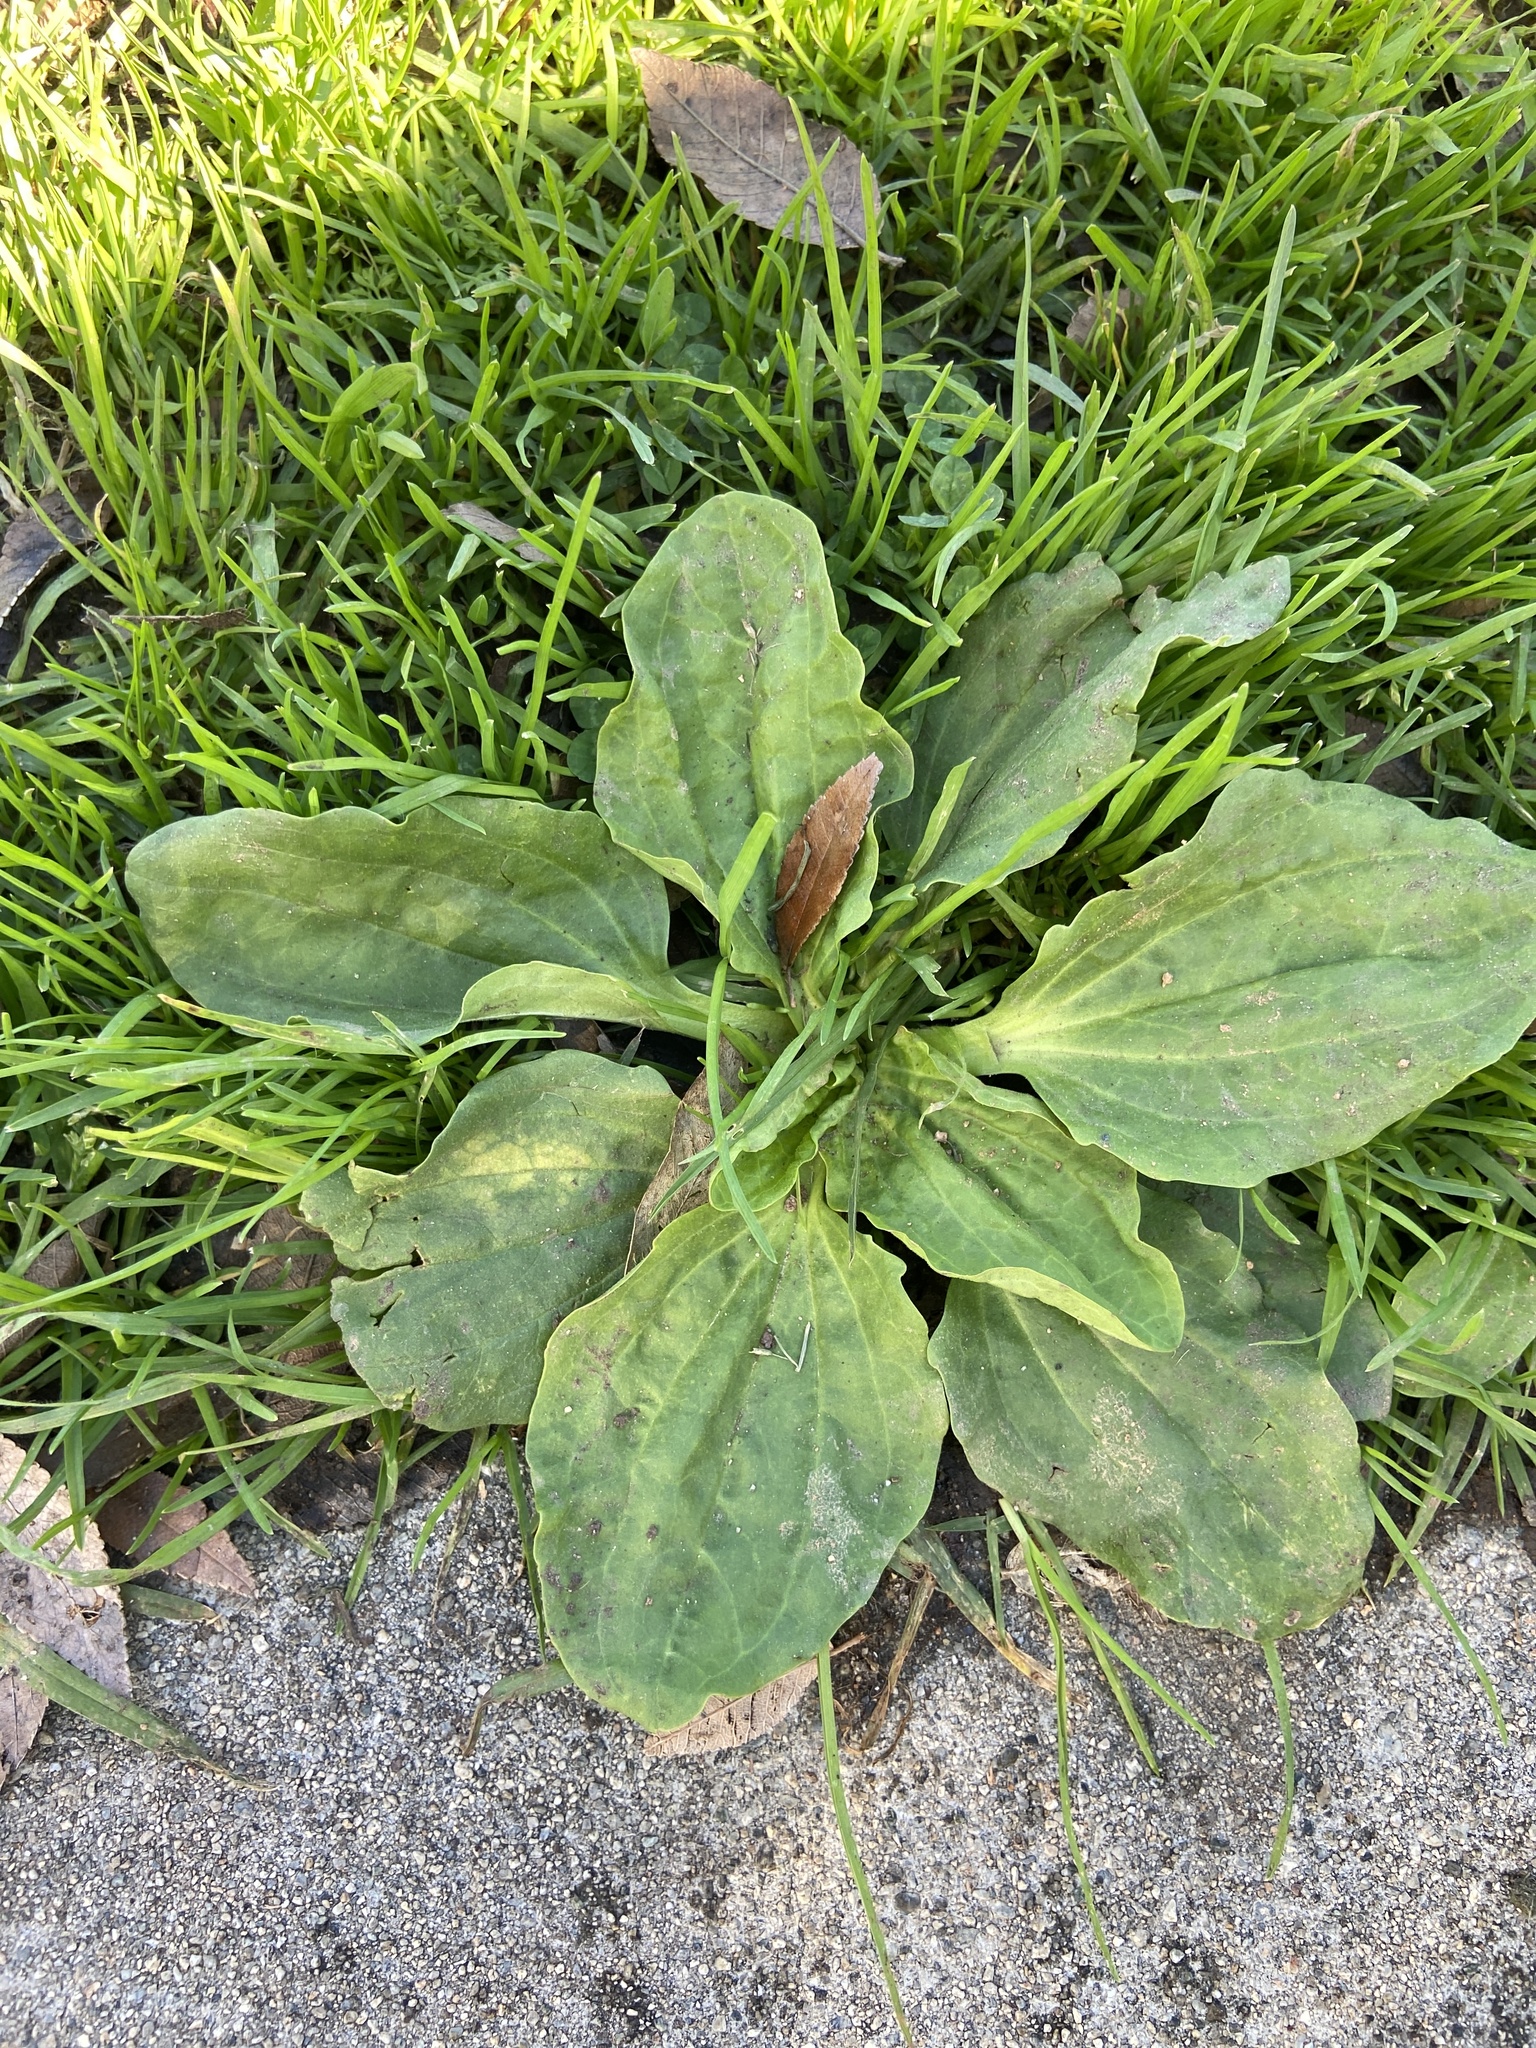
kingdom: Plantae
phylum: Tracheophyta
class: Magnoliopsida
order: Lamiales
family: Plantaginaceae
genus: Plantago
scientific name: Plantago major
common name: Common plantain
